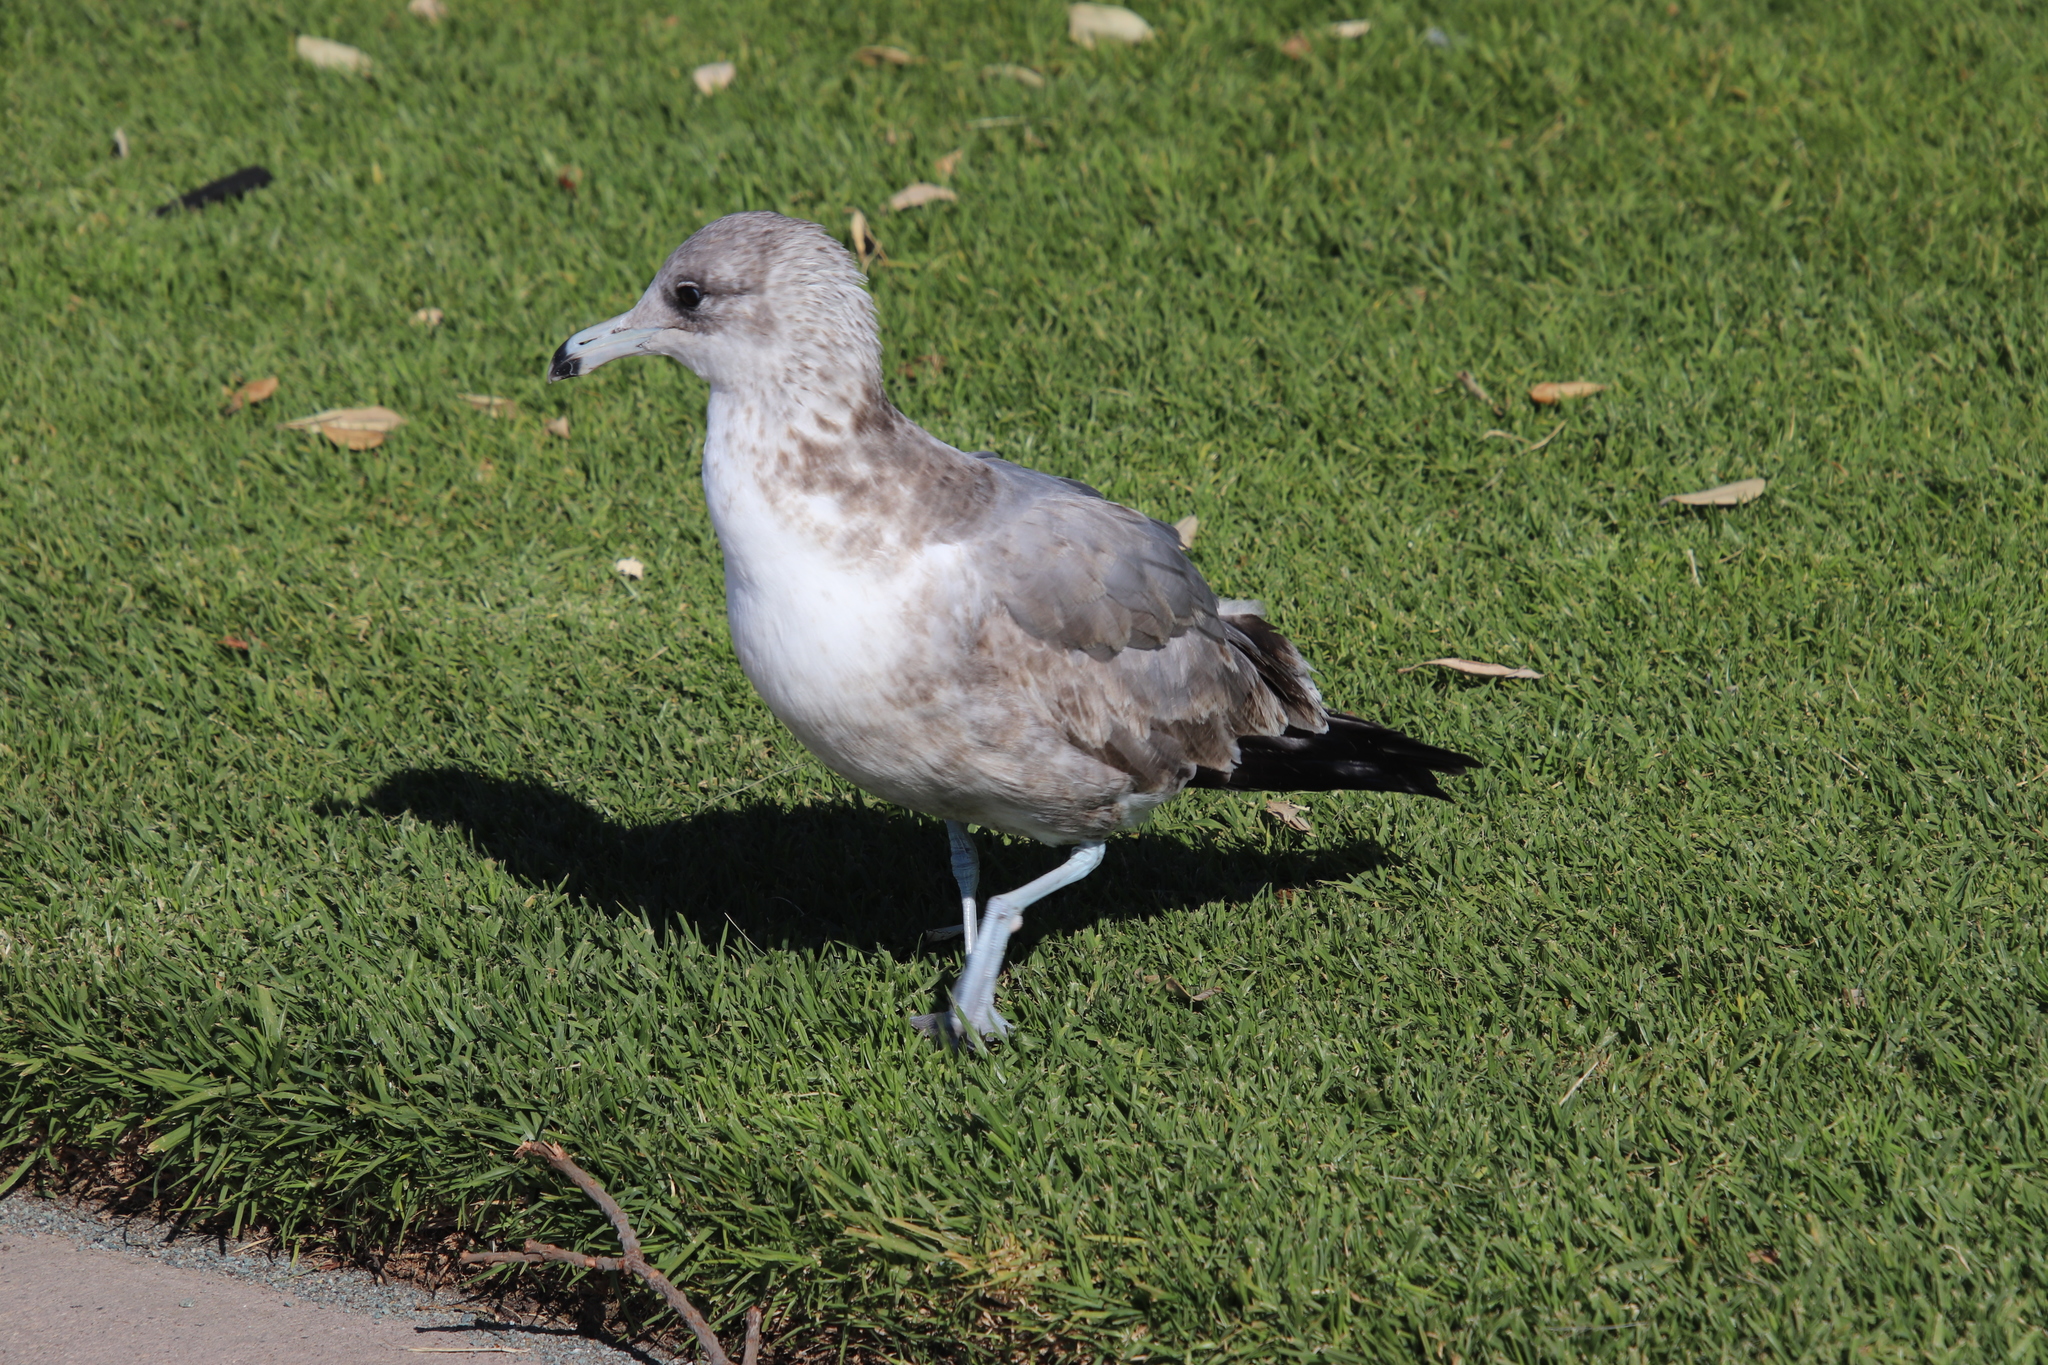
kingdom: Animalia
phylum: Chordata
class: Aves
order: Charadriiformes
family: Laridae
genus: Larus
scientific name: Larus californicus
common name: California gull
